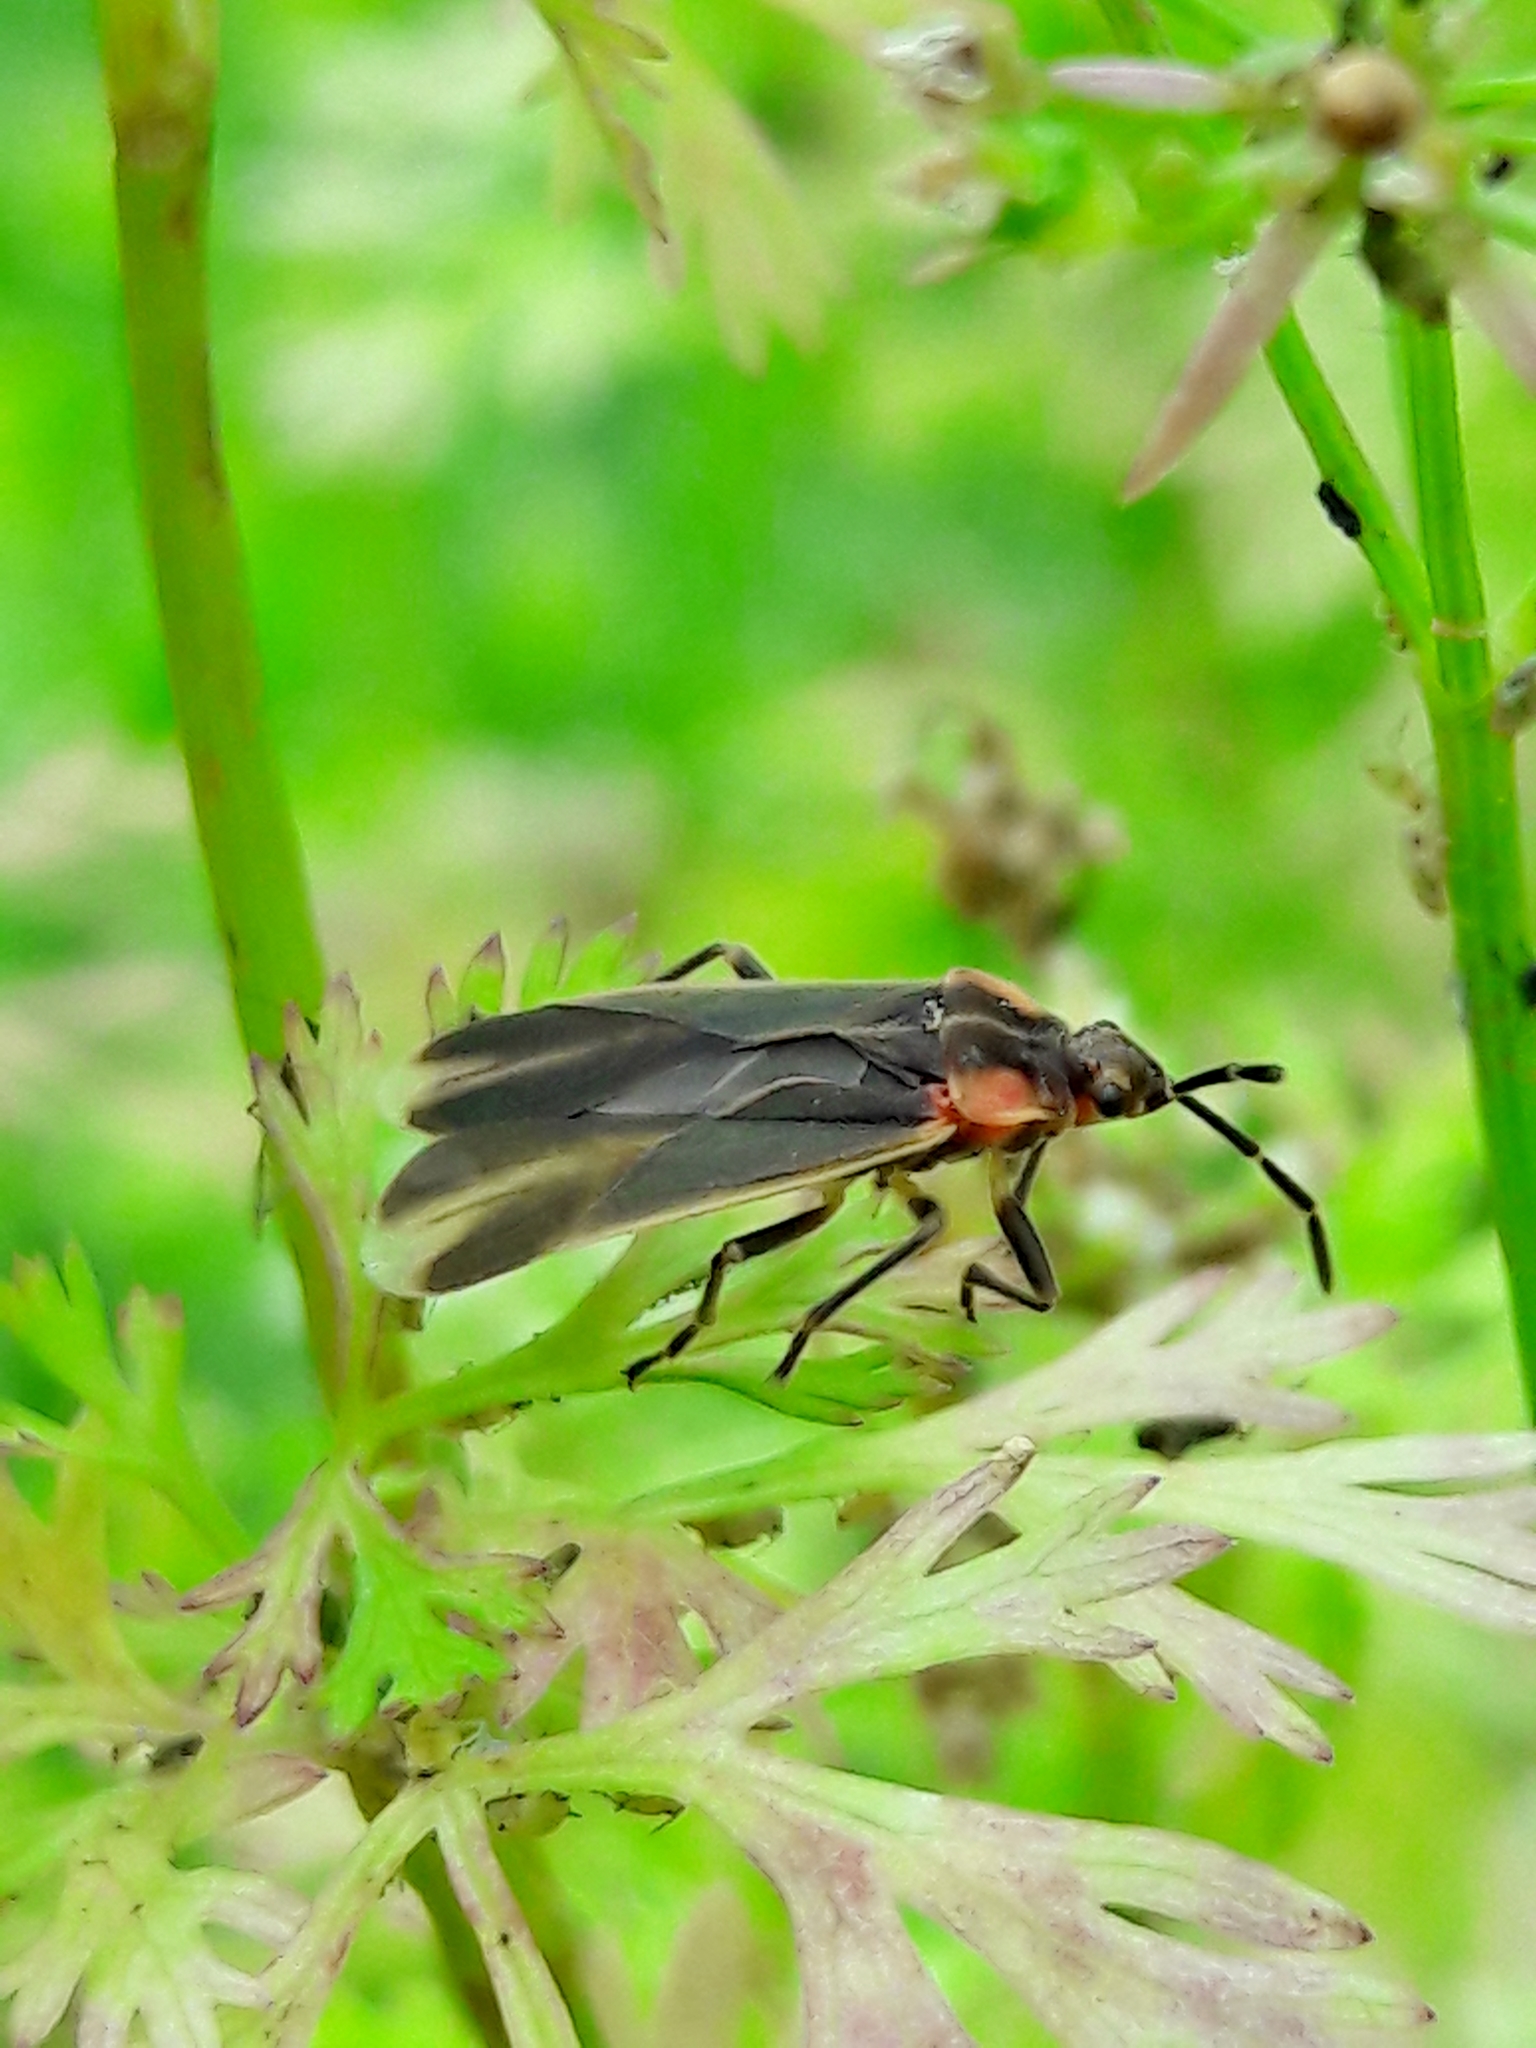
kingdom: Animalia
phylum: Arthropoda
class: Insecta
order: Hemiptera
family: Lygaeidae
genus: Acroleucus
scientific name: Acroleucus coxalis
